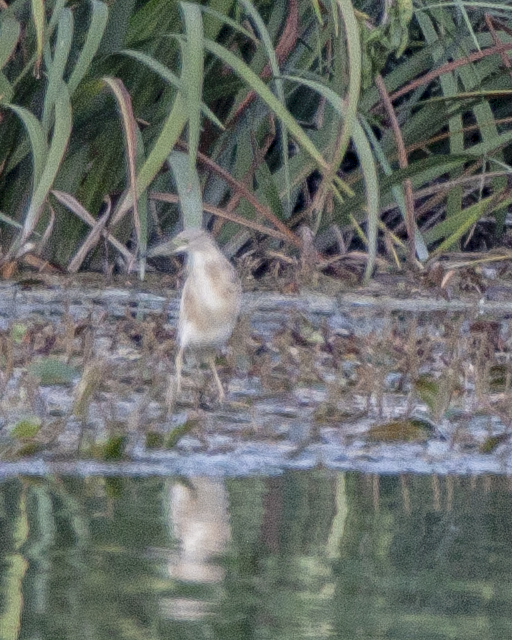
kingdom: Animalia
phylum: Chordata
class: Aves
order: Pelecaniformes
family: Ardeidae
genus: Ardeola
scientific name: Ardeola ralloides
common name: Squacco heron
